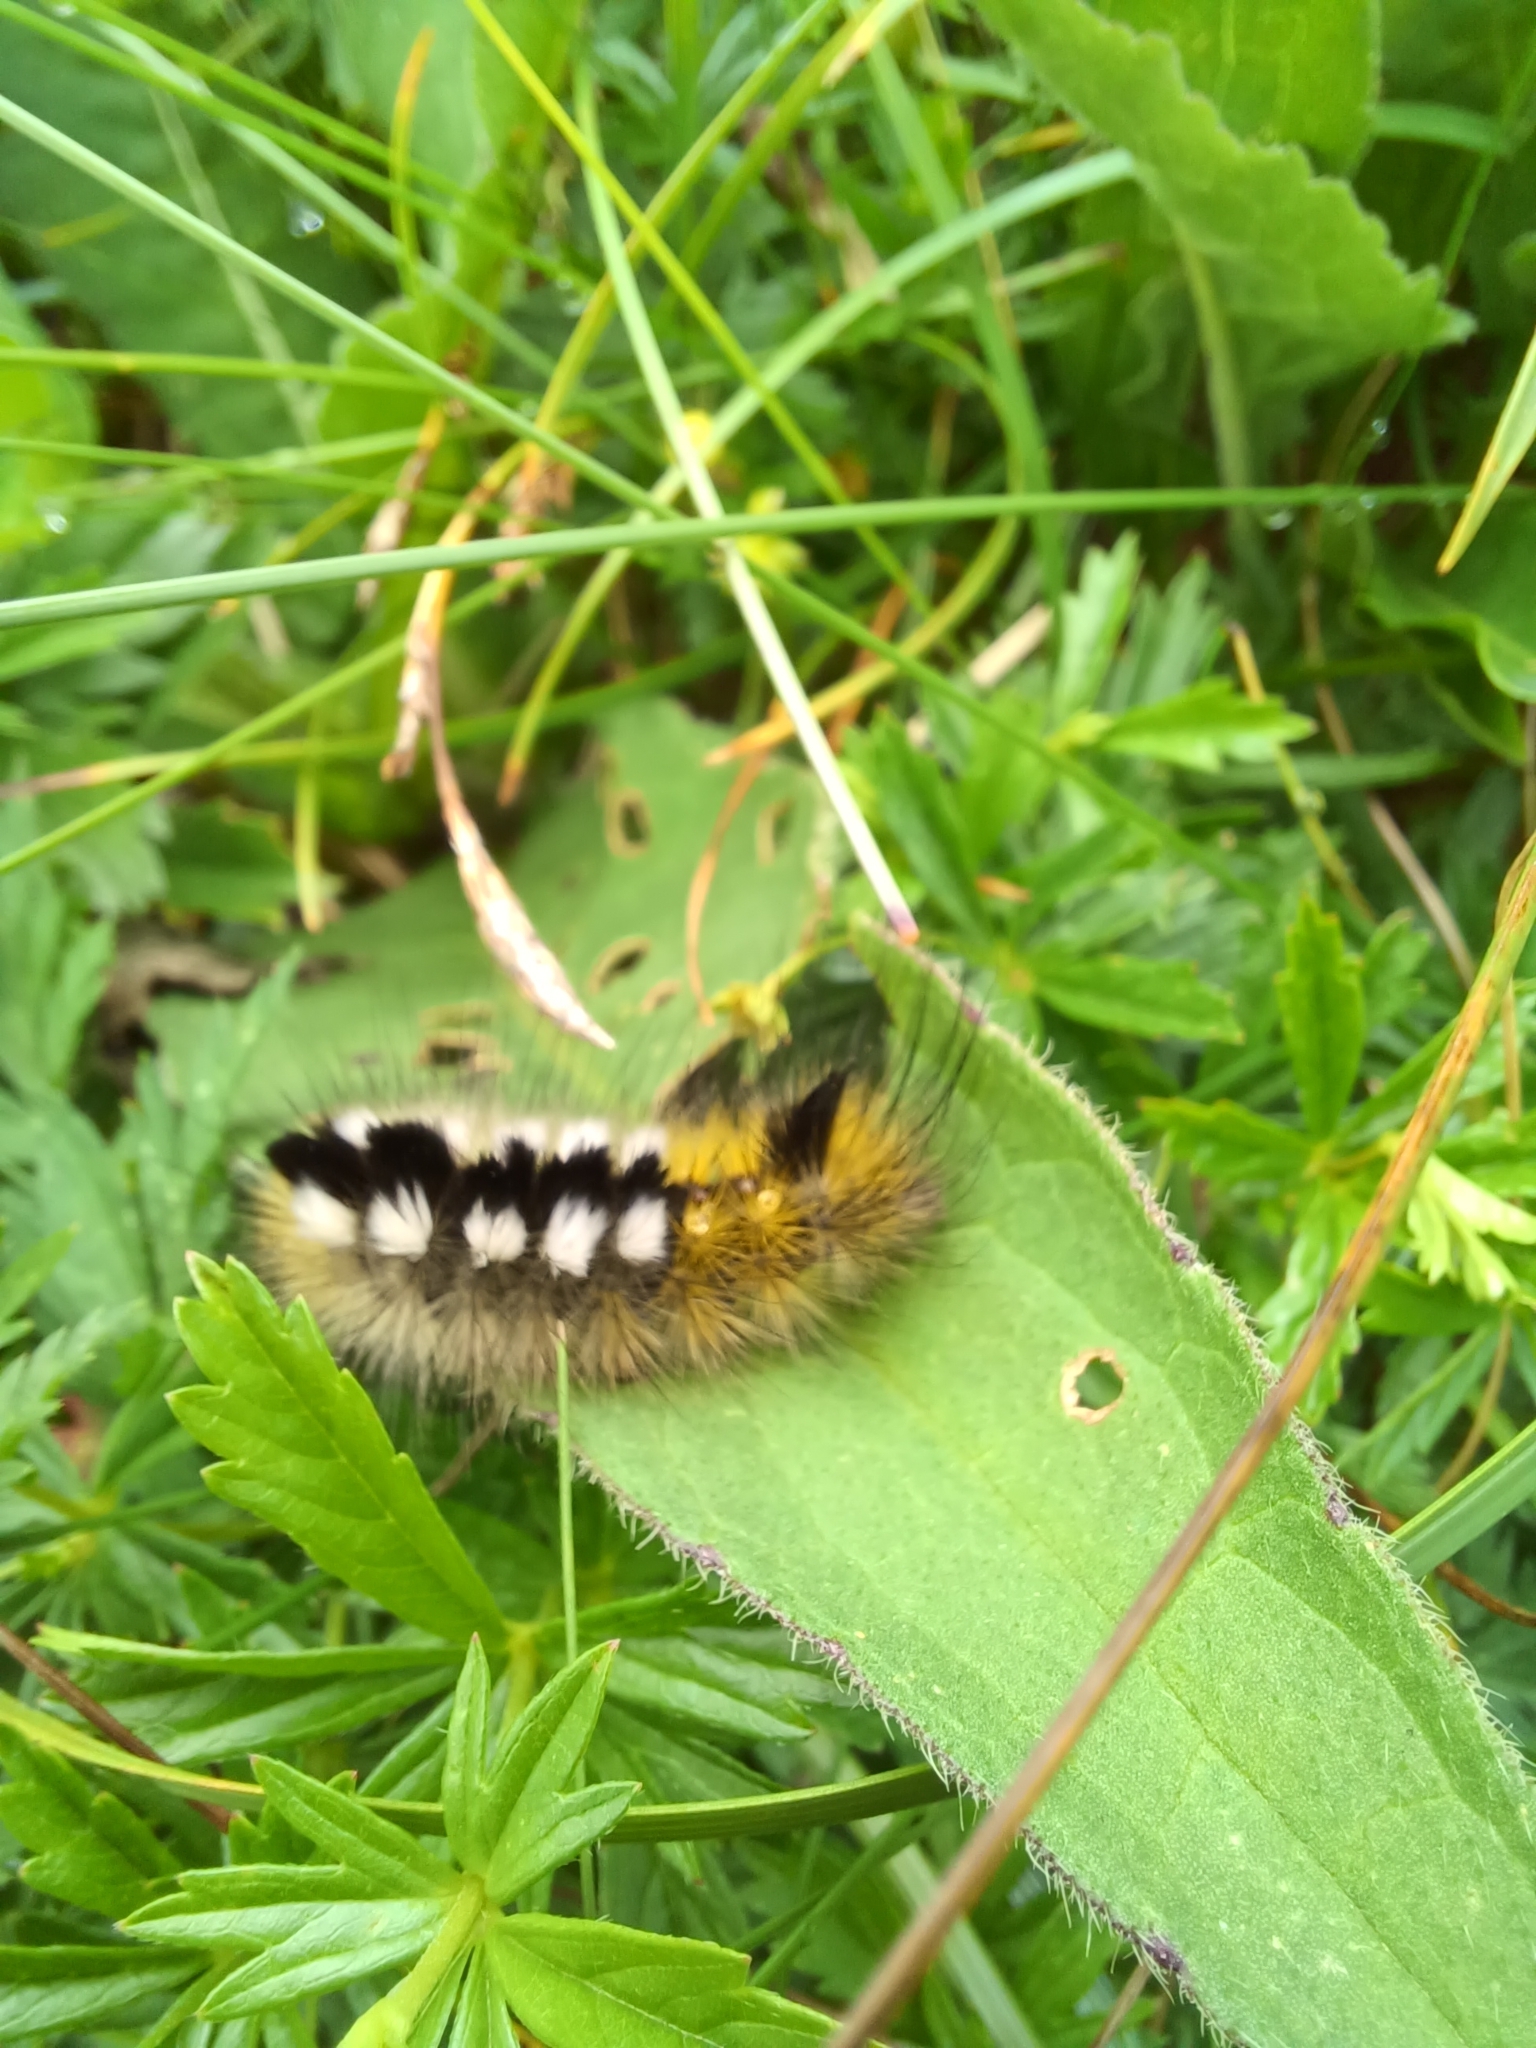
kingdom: Animalia
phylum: Arthropoda
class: Insecta
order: Lepidoptera
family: Erebidae
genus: Calliteara
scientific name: Calliteara Dicallomera fascelina
